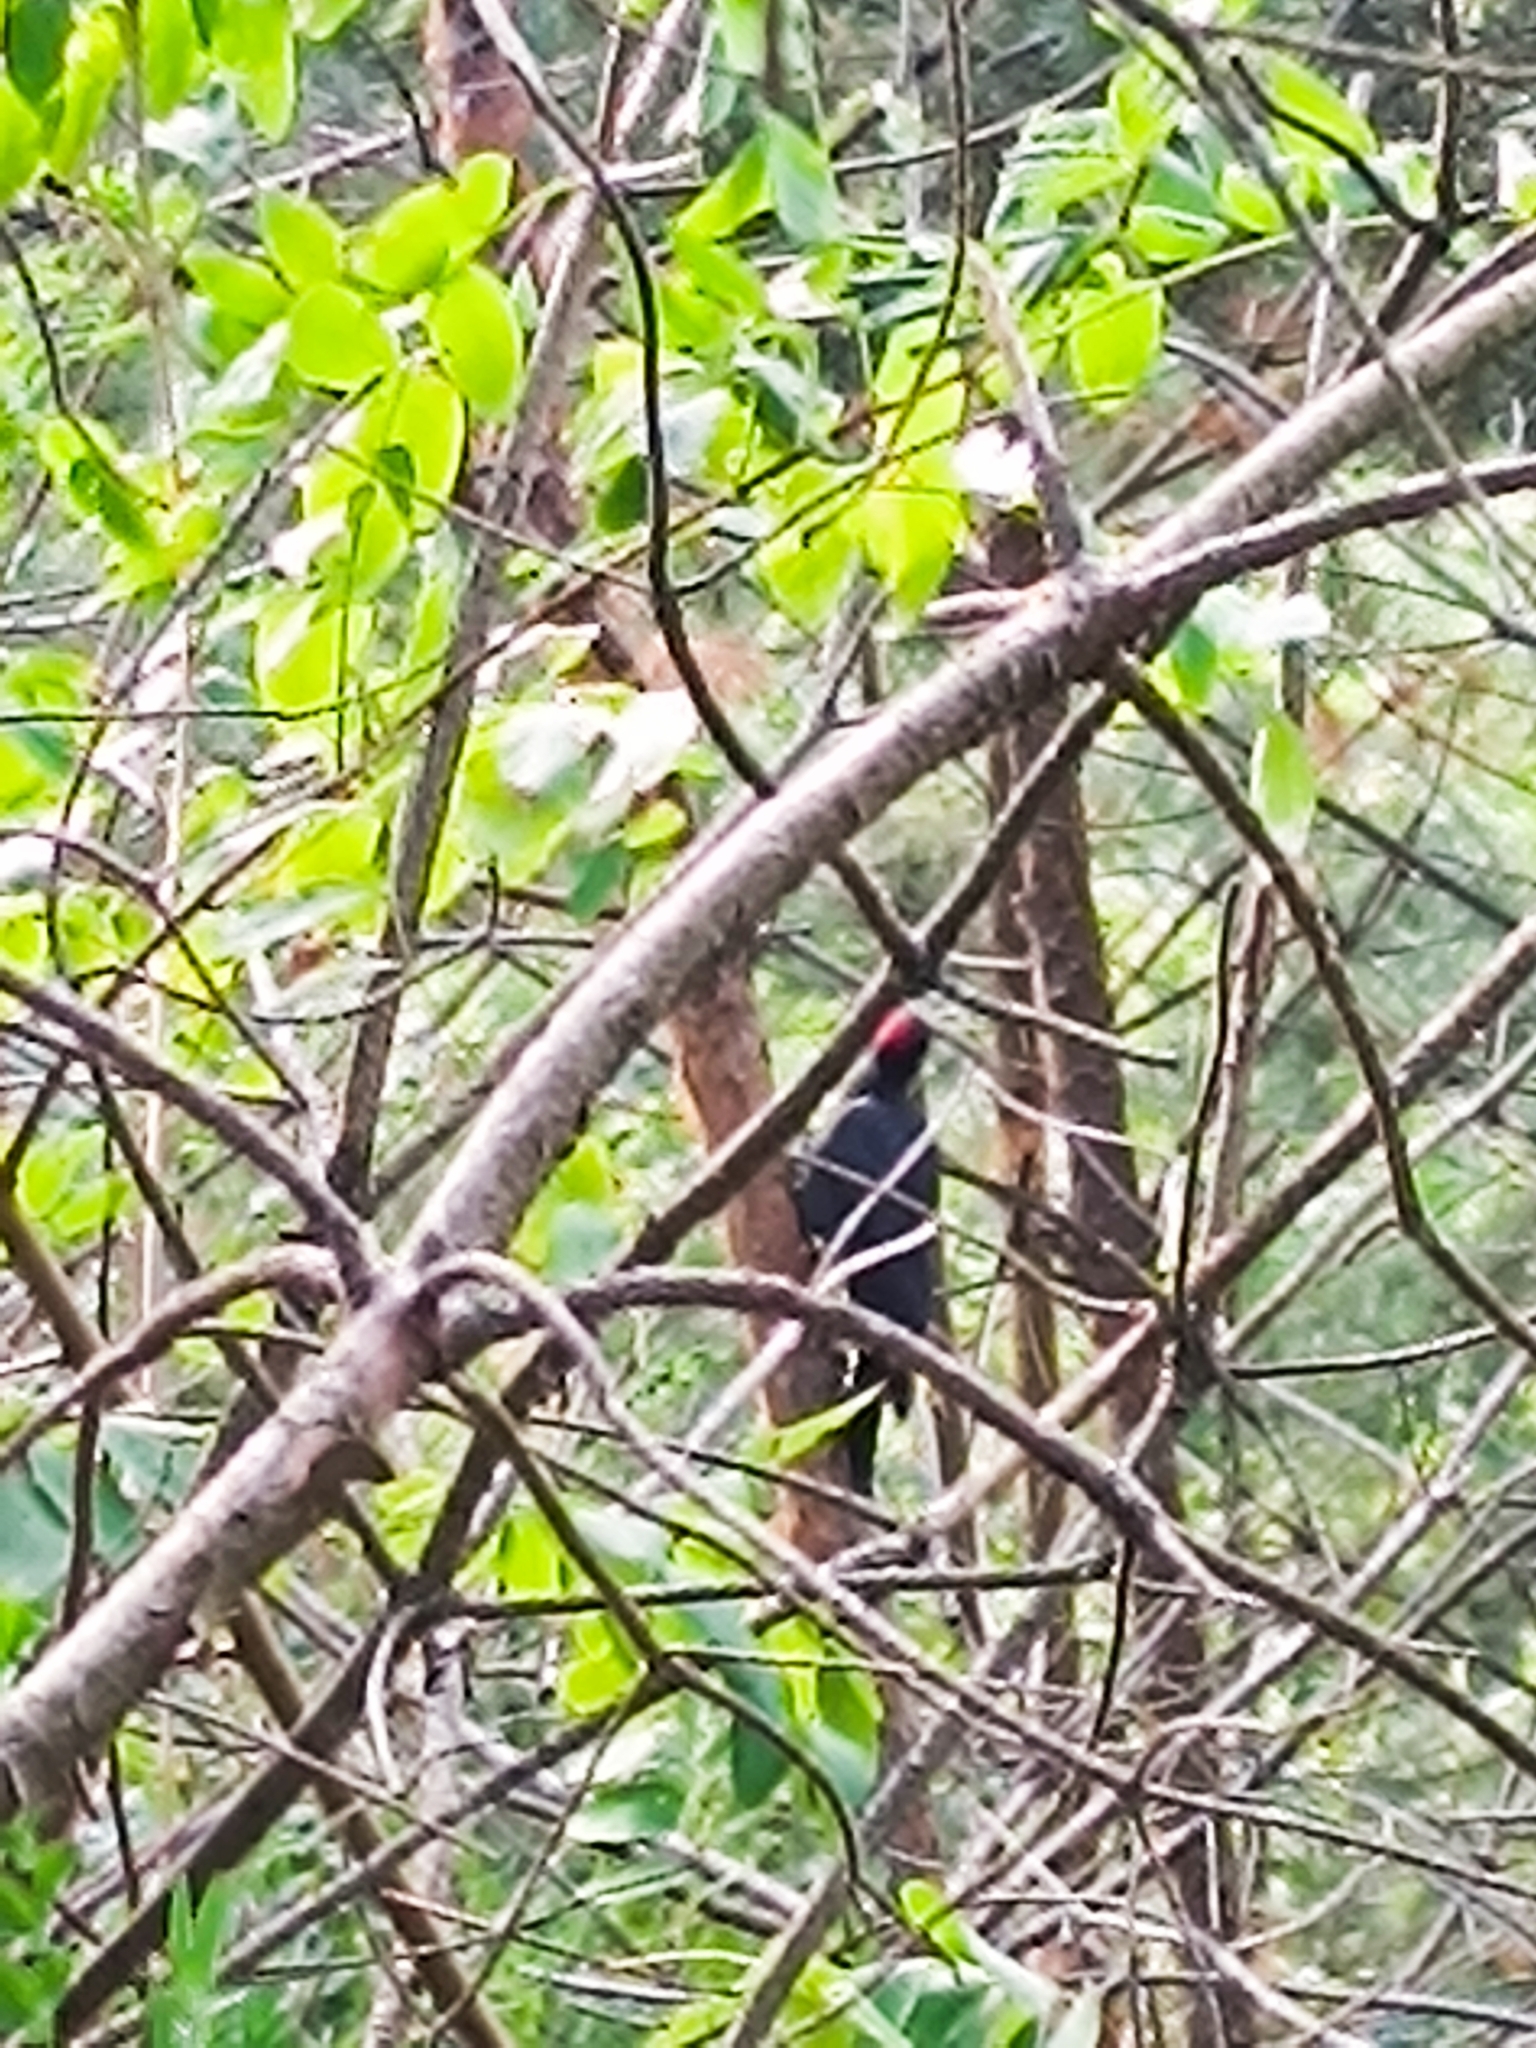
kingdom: Animalia
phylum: Chordata
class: Aves
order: Piciformes
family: Picidae
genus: Dryocopus
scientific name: Dryocopus martius
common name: Black woodpecker
